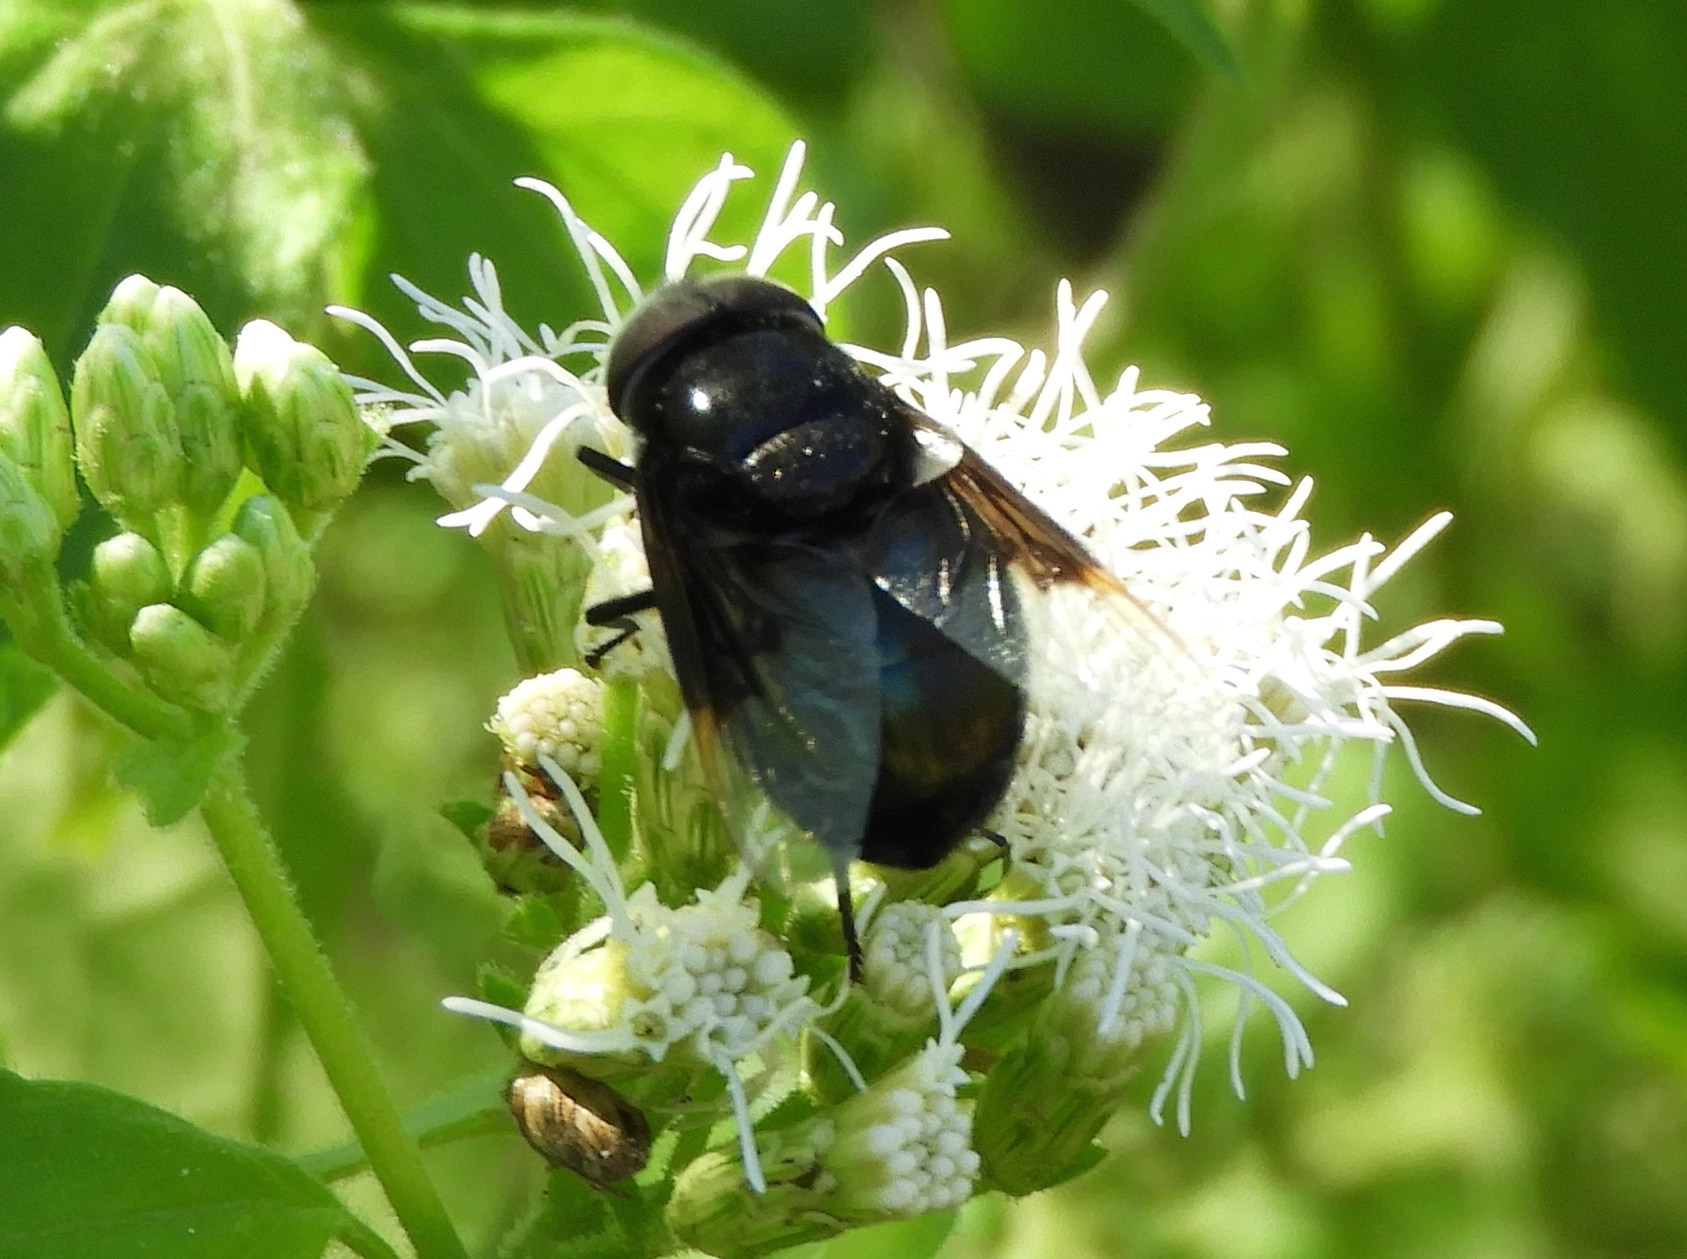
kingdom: Animalia
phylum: Arthropoda
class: Insecta
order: Diptera
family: Syrphidae
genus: Copestylum
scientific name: Copestylum mexicanum
